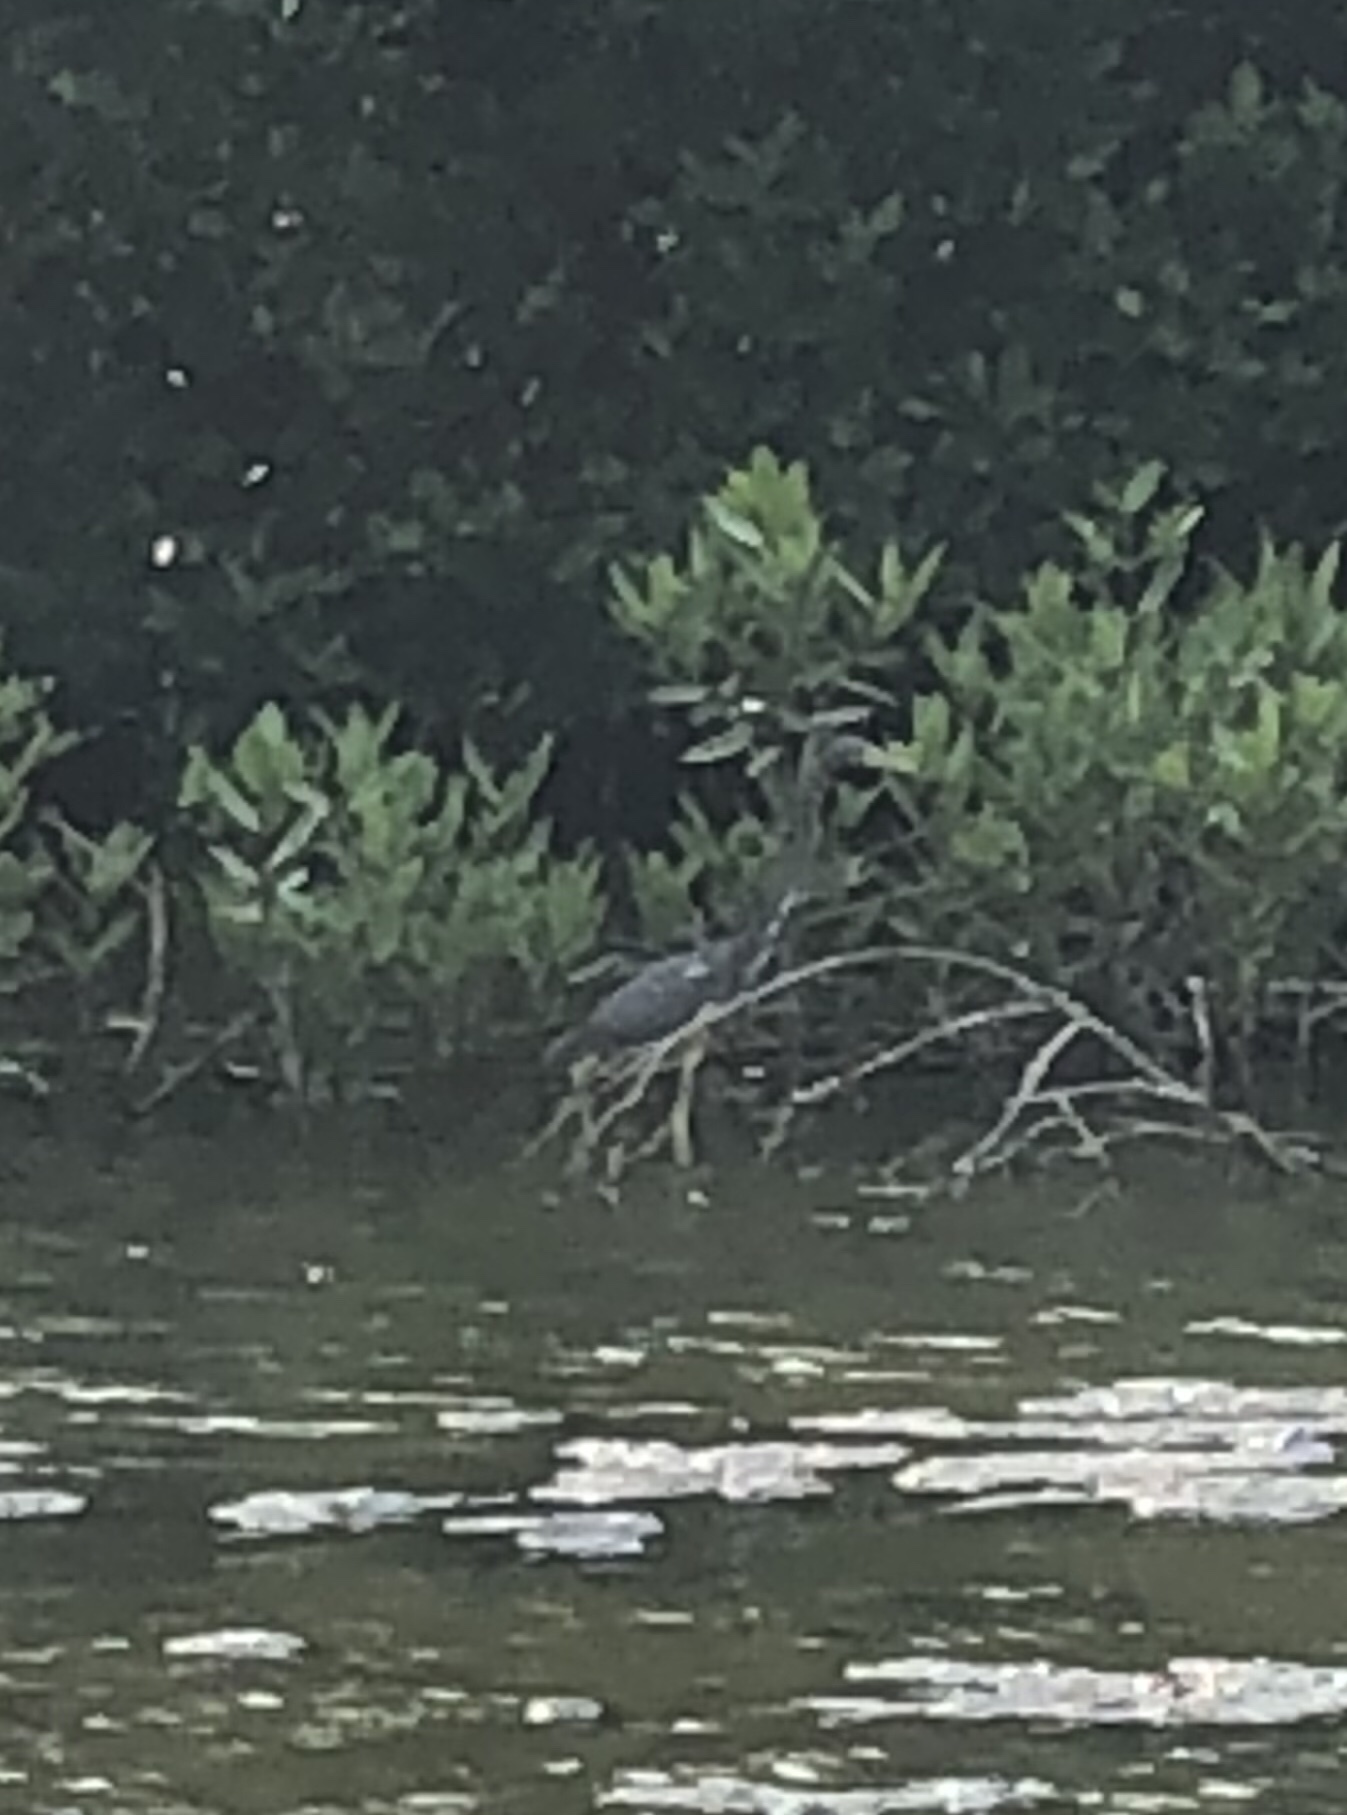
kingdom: Animalia
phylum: Chordata
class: Aves
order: Pelecaniformes
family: Ardeidae
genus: Egretta
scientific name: Egretta tricolor
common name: Tricolored heron
